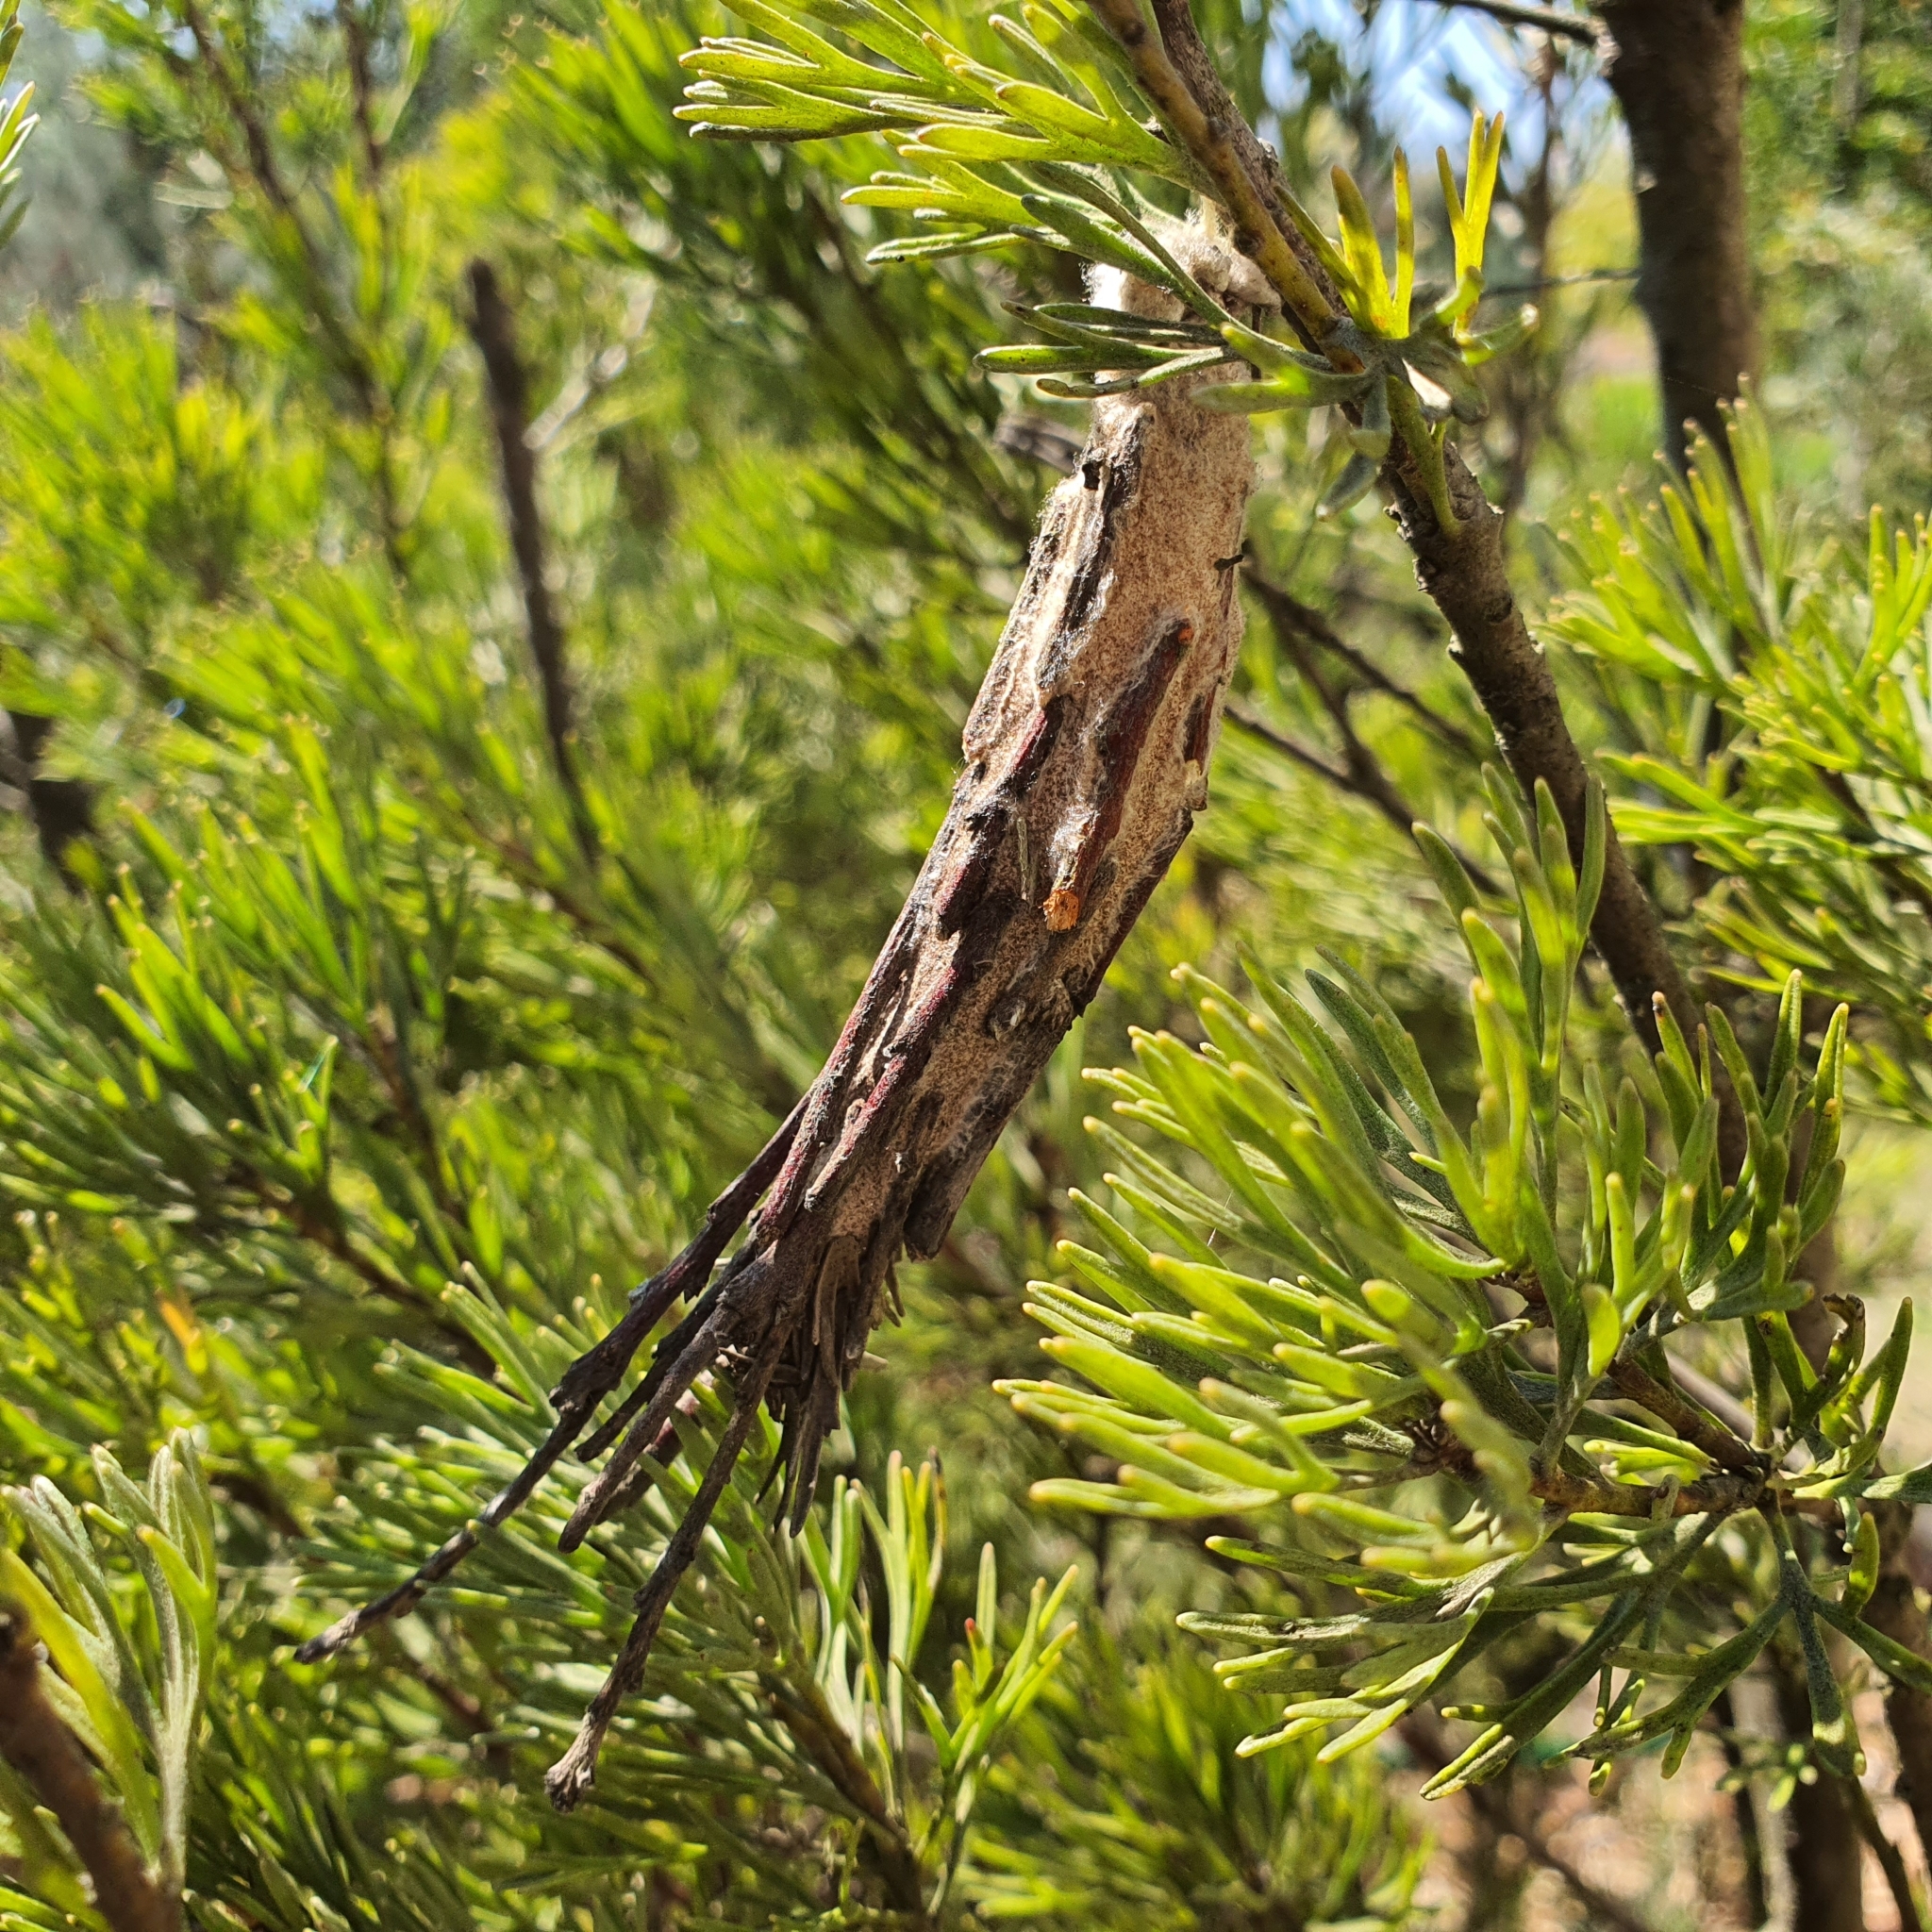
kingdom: Animalia
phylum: Arthropoda
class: Insecta
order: Lepidoptera
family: Psychidae
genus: Metura
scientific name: Metura elongatus
